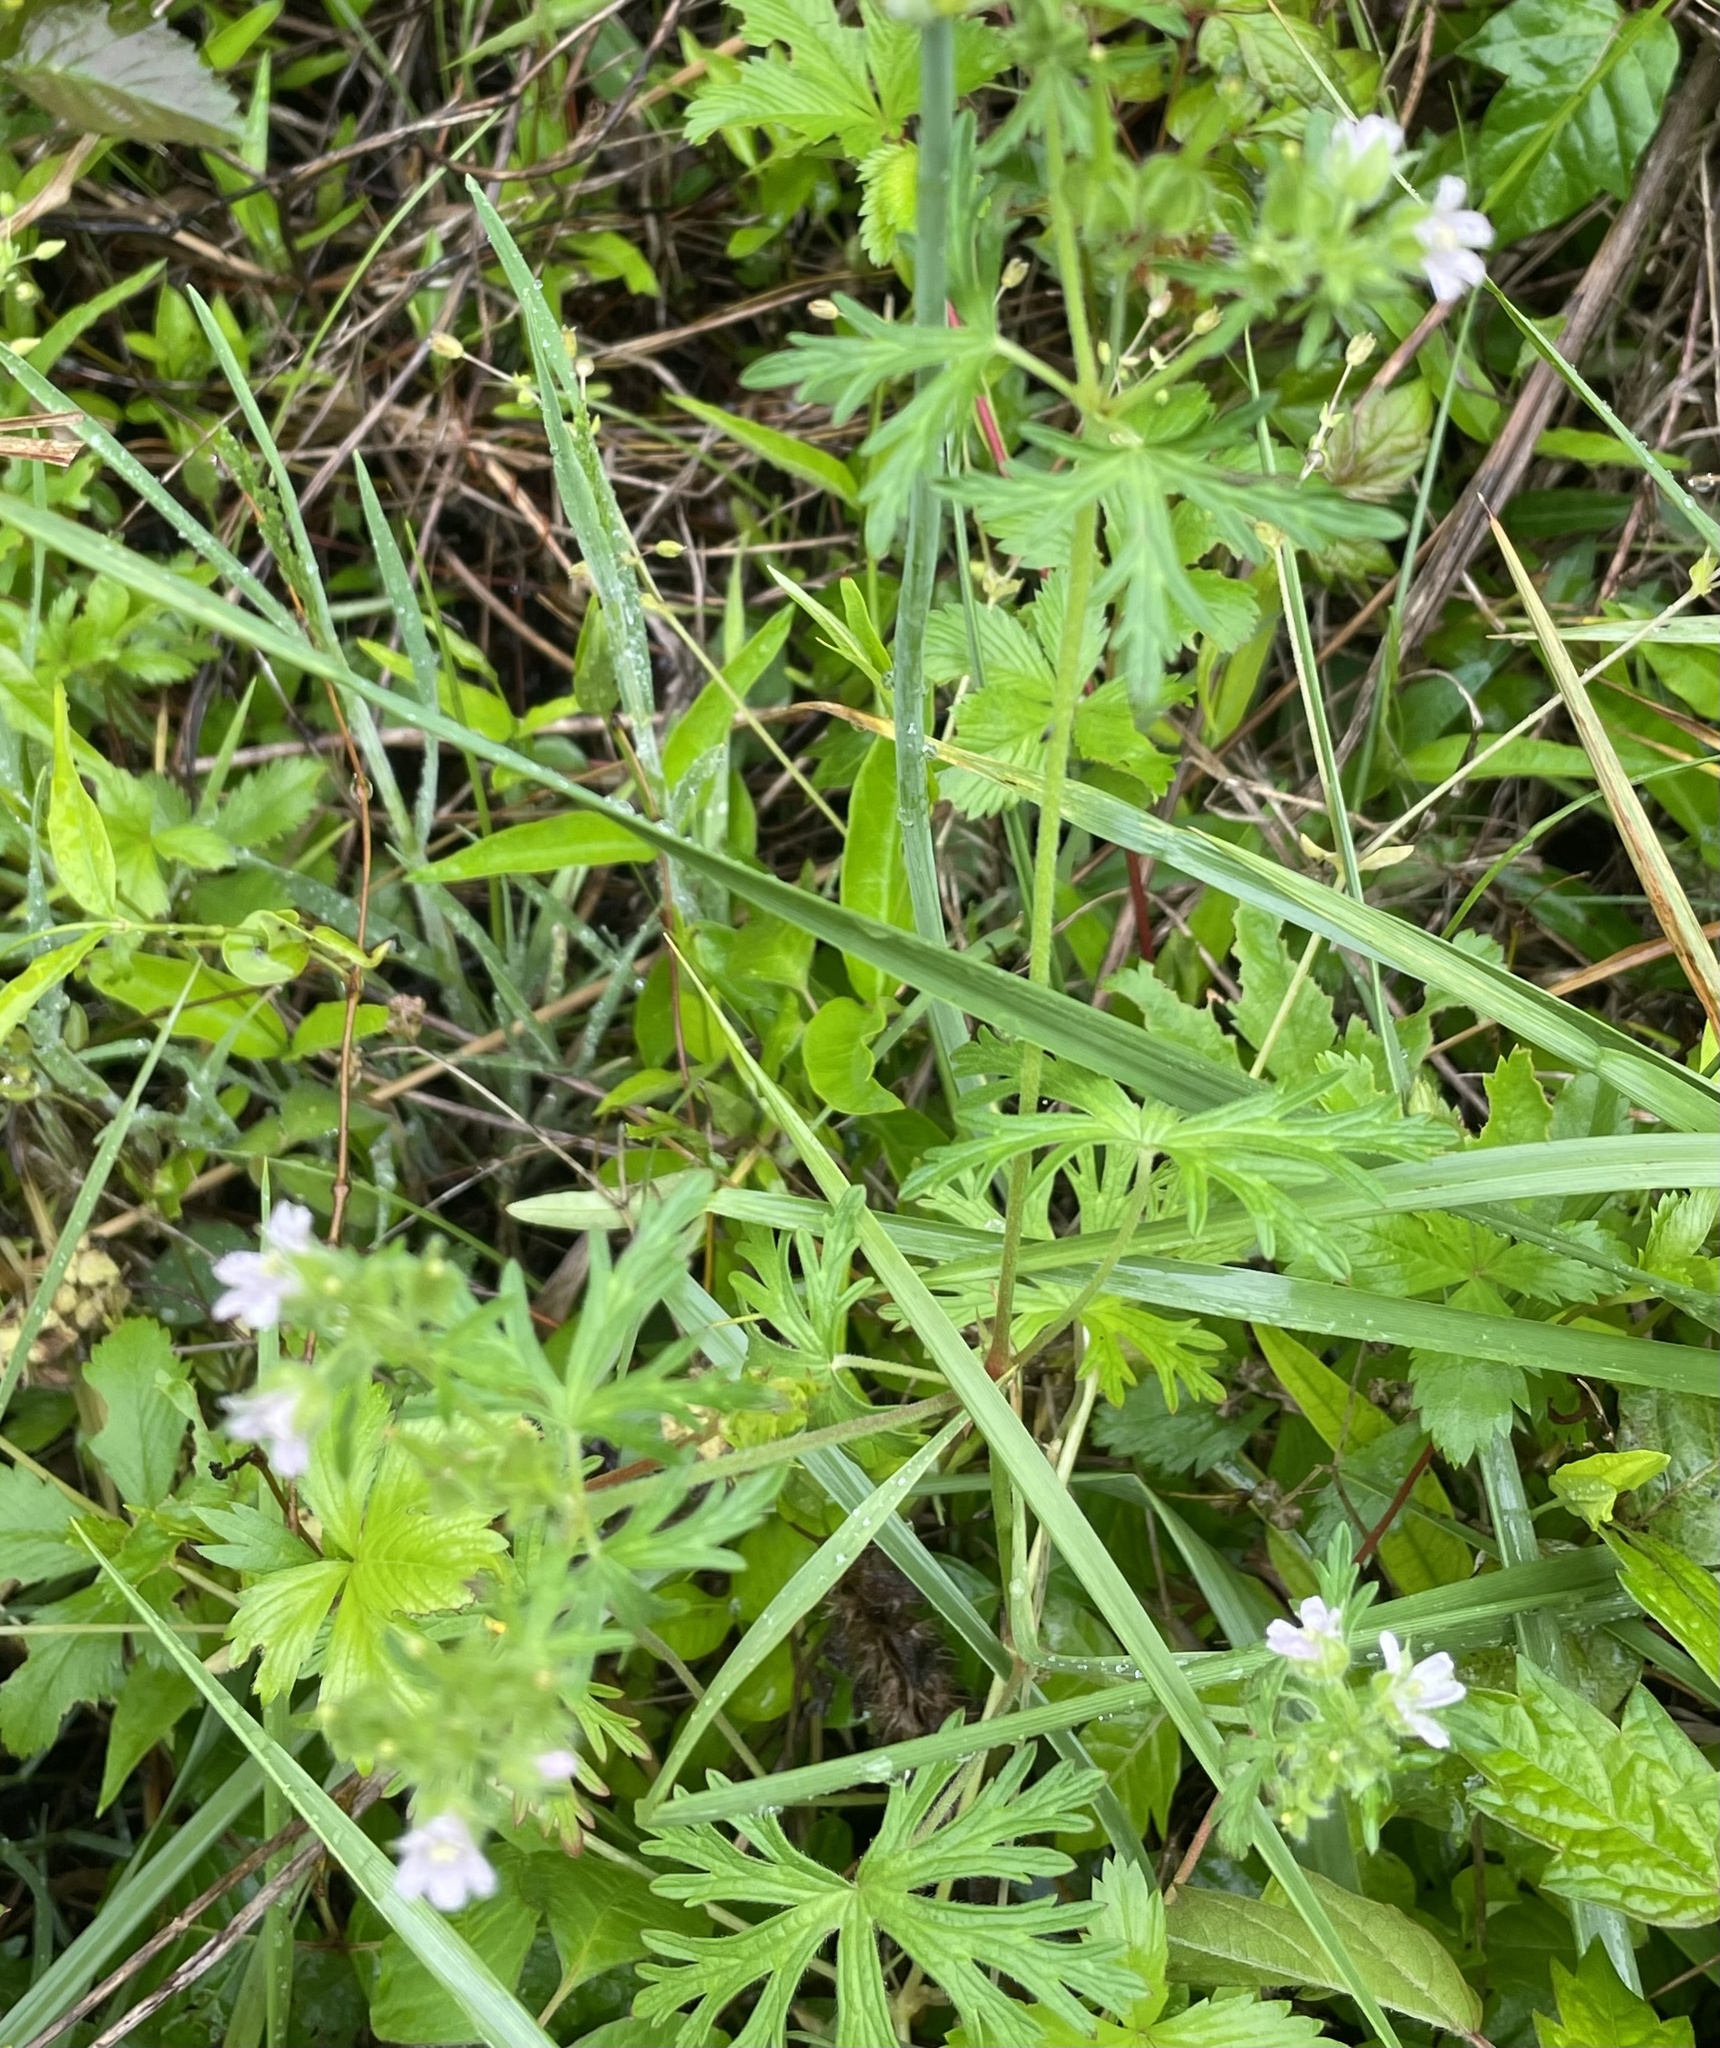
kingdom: Plantae
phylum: Tracheophyta
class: Magnoliopsida
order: Geraniales
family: Geraniaceae
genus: Geranium
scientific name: Geranium carolinianum
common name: Carolina crane's-bill
